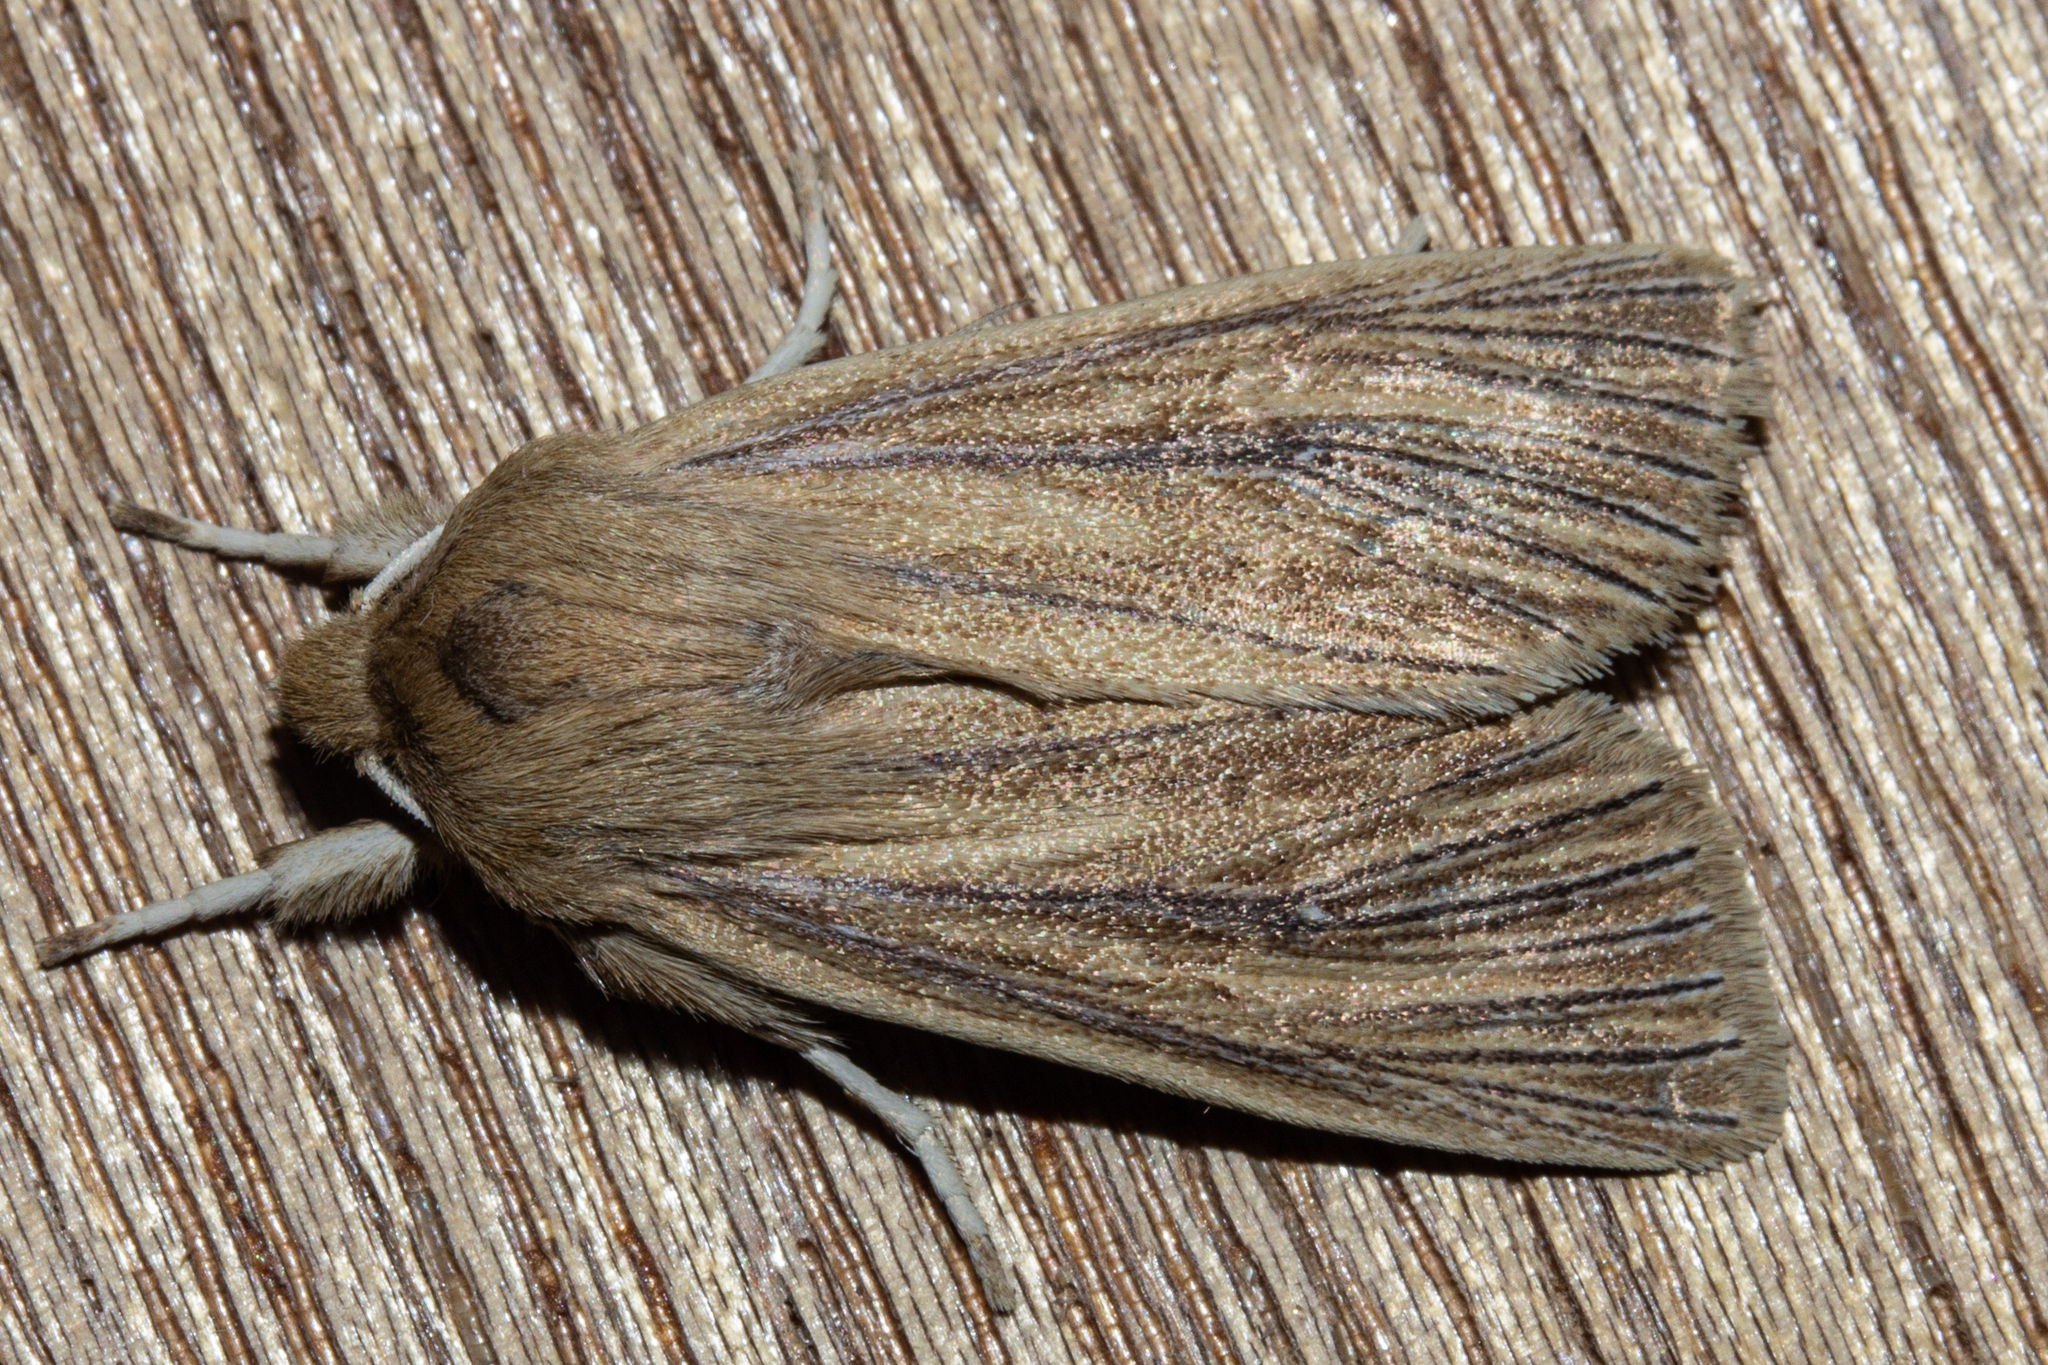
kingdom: Animalia
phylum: Arthropoda
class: Insecta
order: Lepidoptera
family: Noctuidae
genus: Ichneutica
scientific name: Ichneutica arotis
